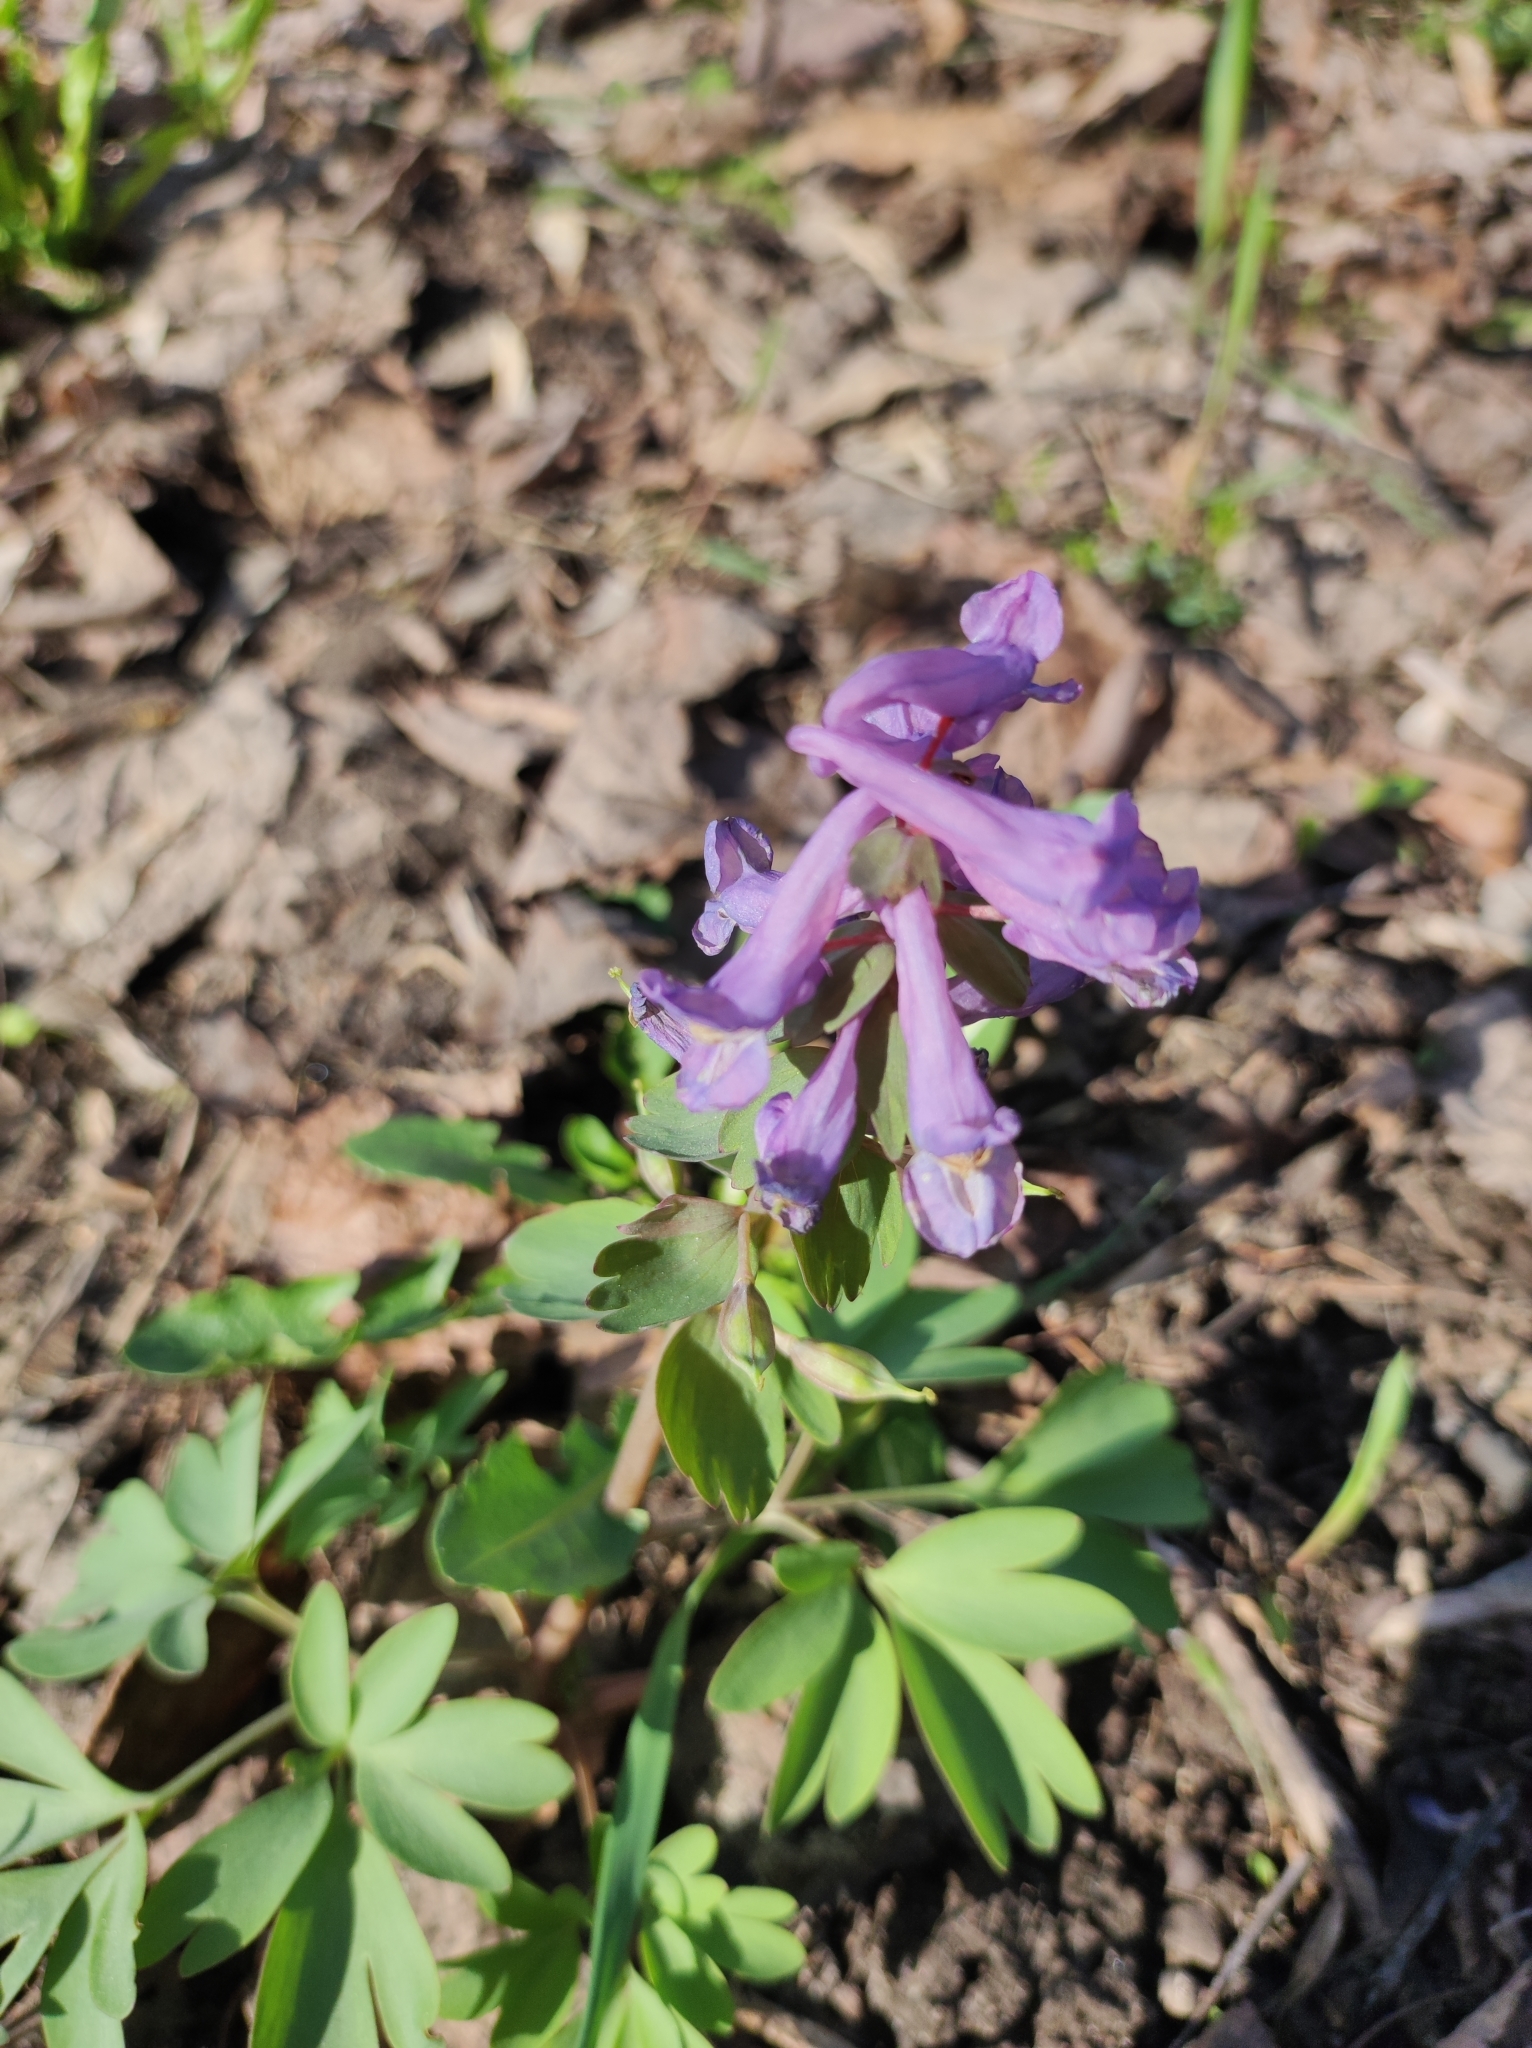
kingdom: Plantae
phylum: Tracheophyta
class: Magnoliopsida
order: Ranunculales
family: Papaveraceae
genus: Corydalis
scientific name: Corydalis solida
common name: Bird-in-a-bush
